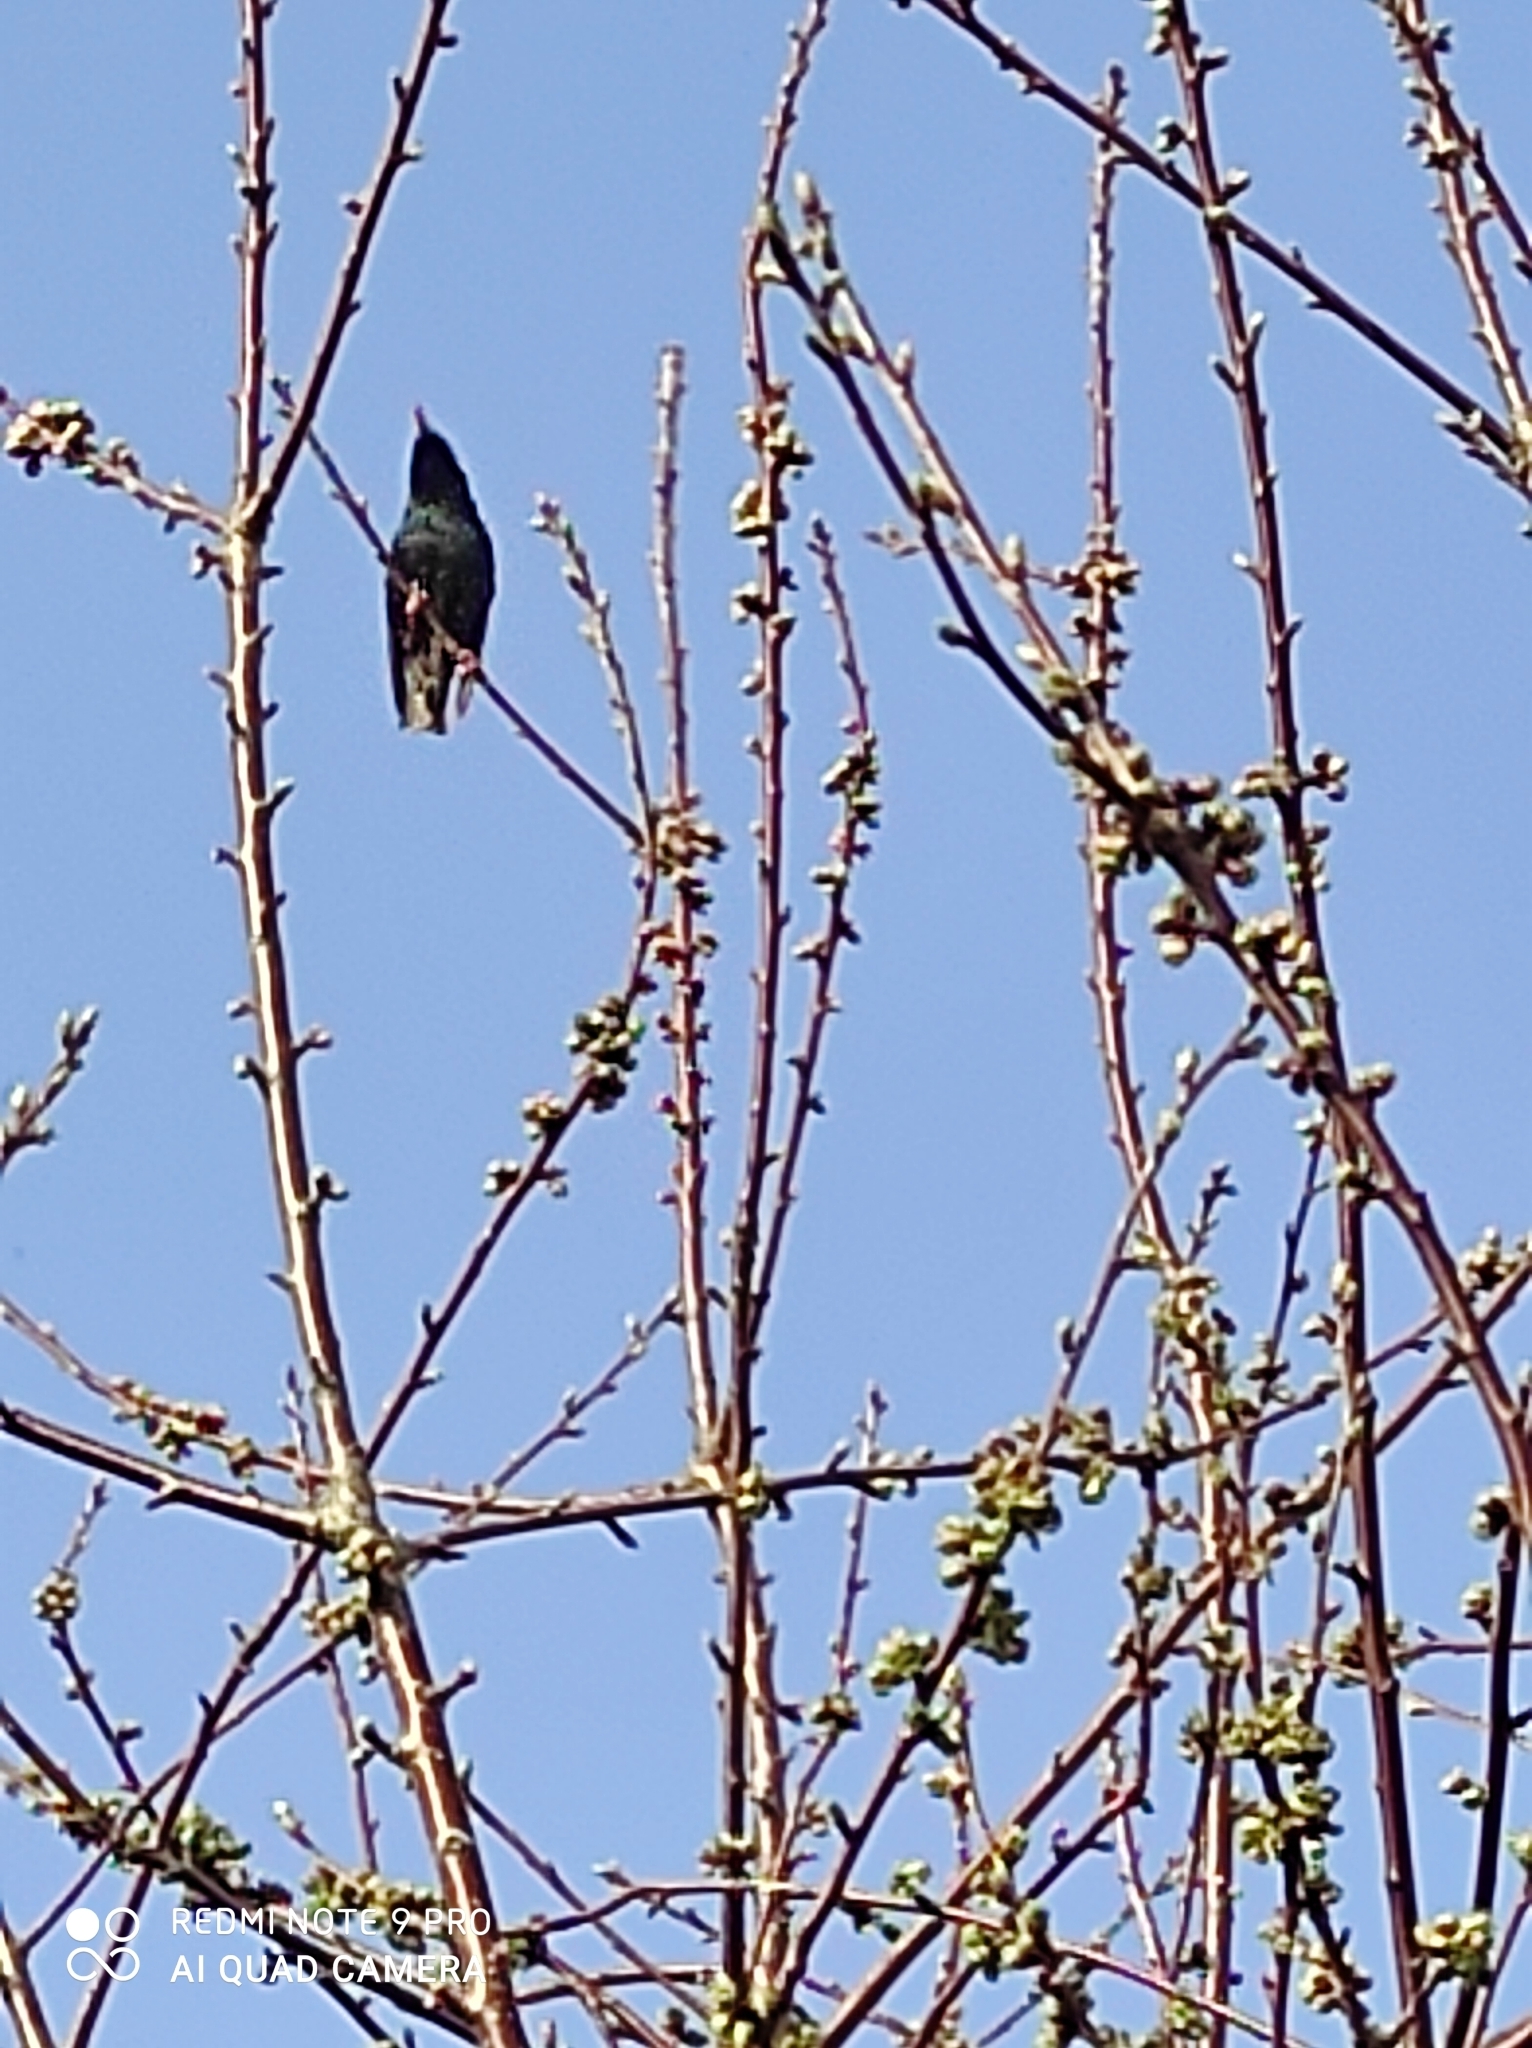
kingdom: Animalia
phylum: Chordata
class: Aves
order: Passeriformes
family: Sturnidae
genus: Sturnus
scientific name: Sturnus vulgaris
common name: Common starling
